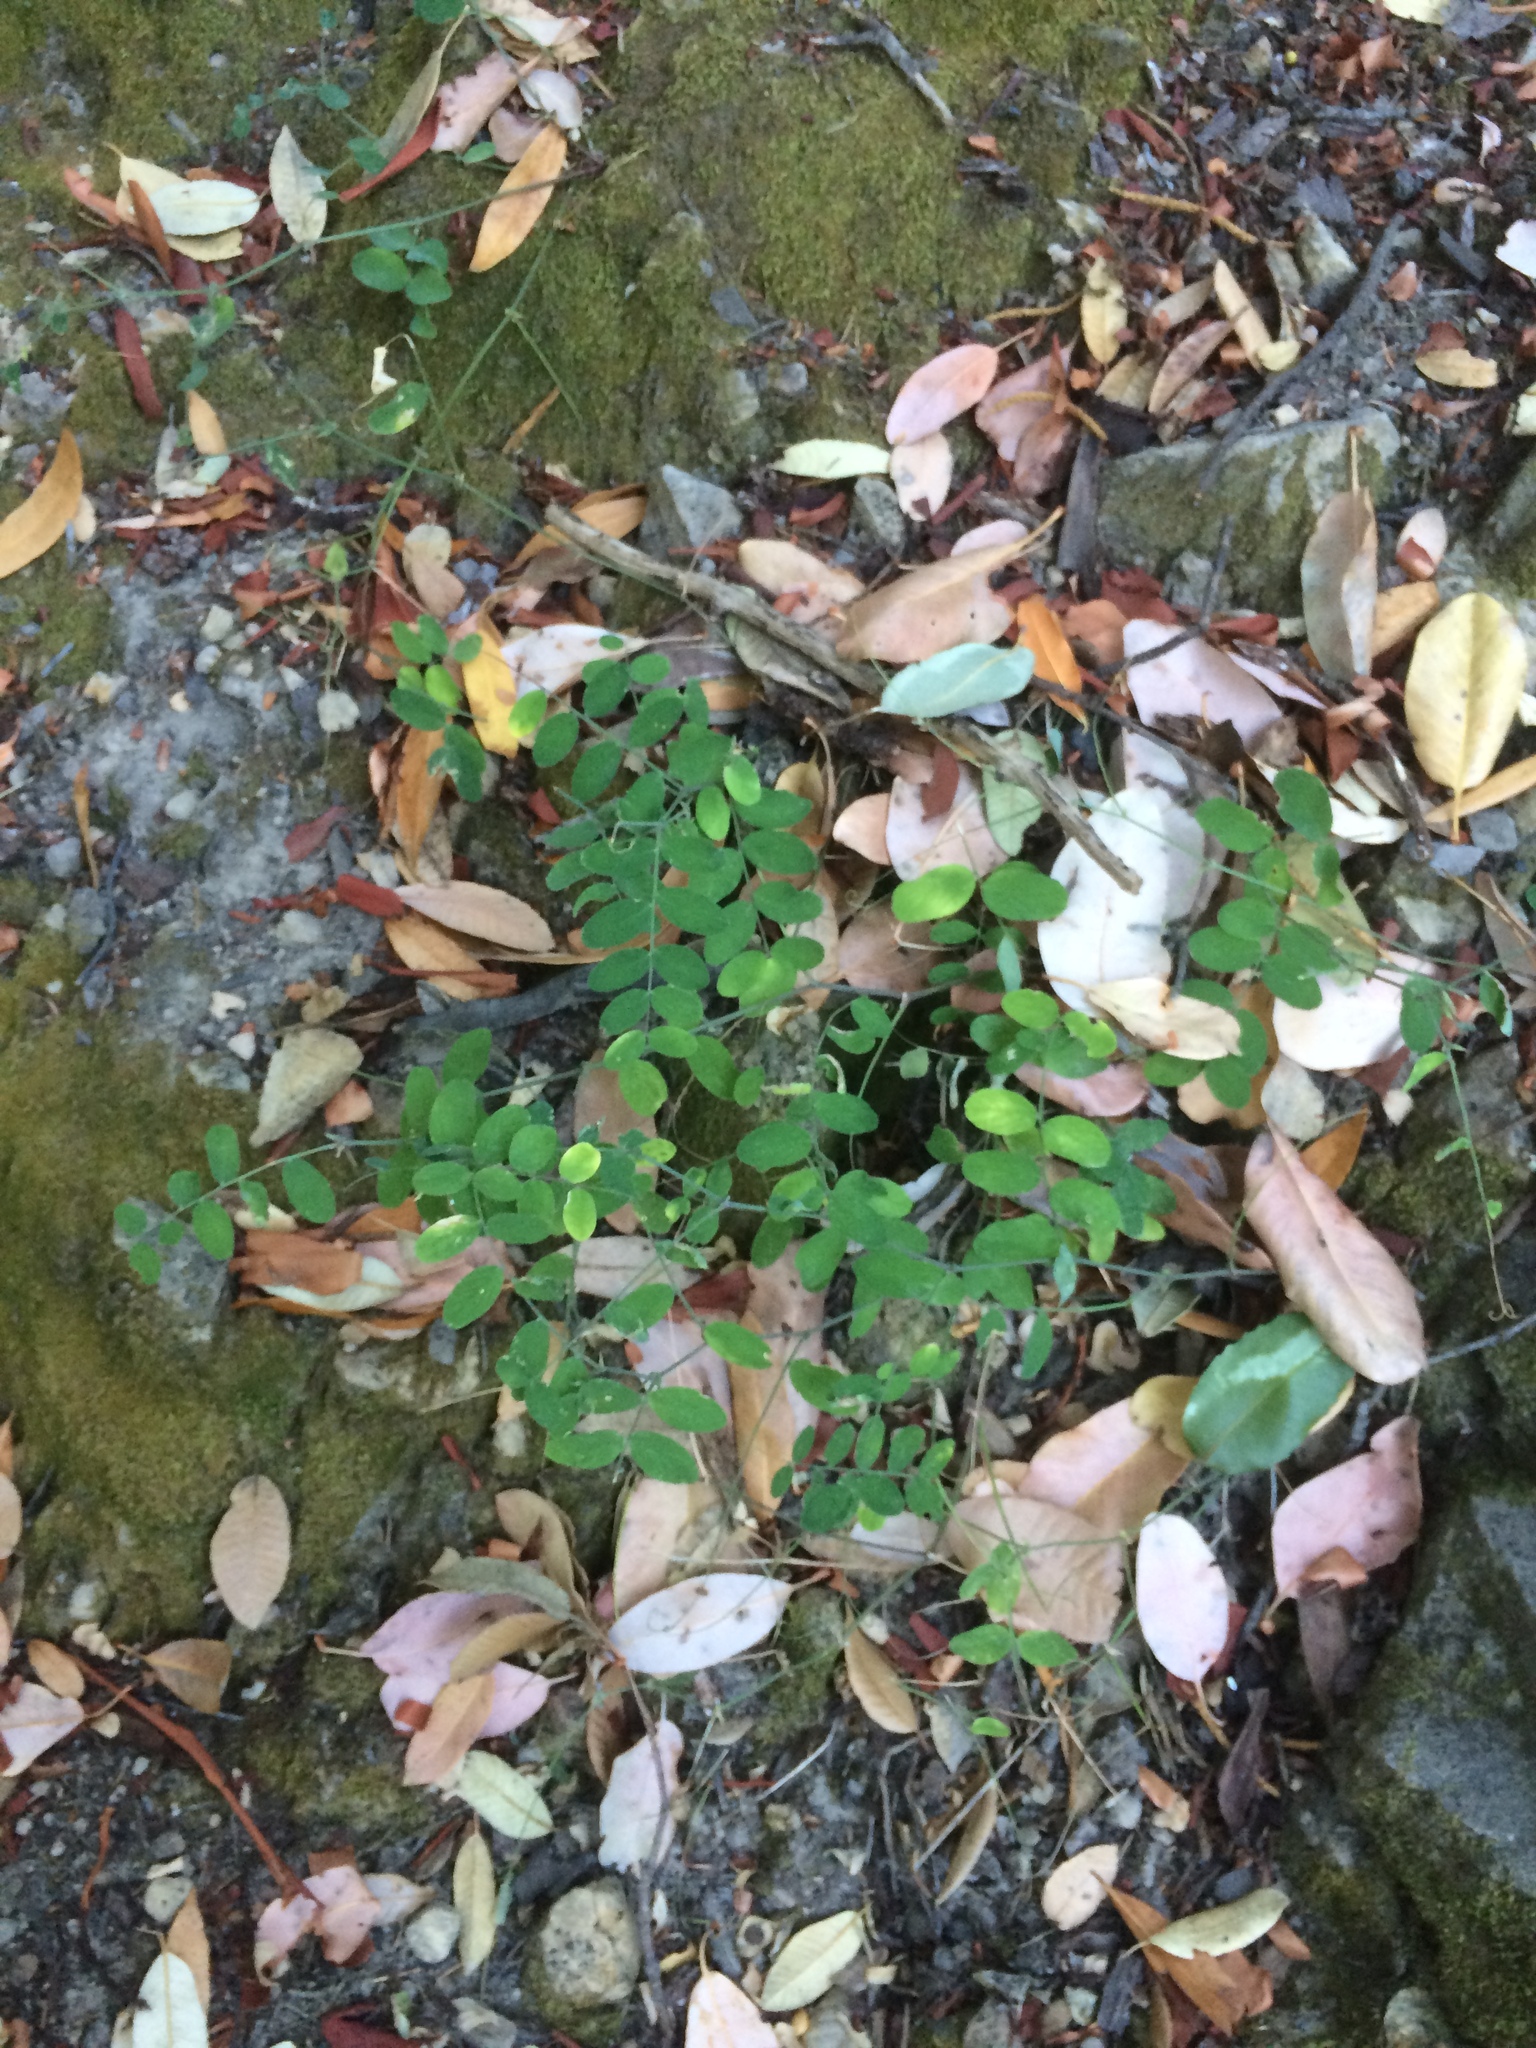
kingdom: Plantae
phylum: Tracheophyta
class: Magnoliopsida
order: Fabales
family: Fabaceae
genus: Lathyrus
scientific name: Lathyrus vestitus
